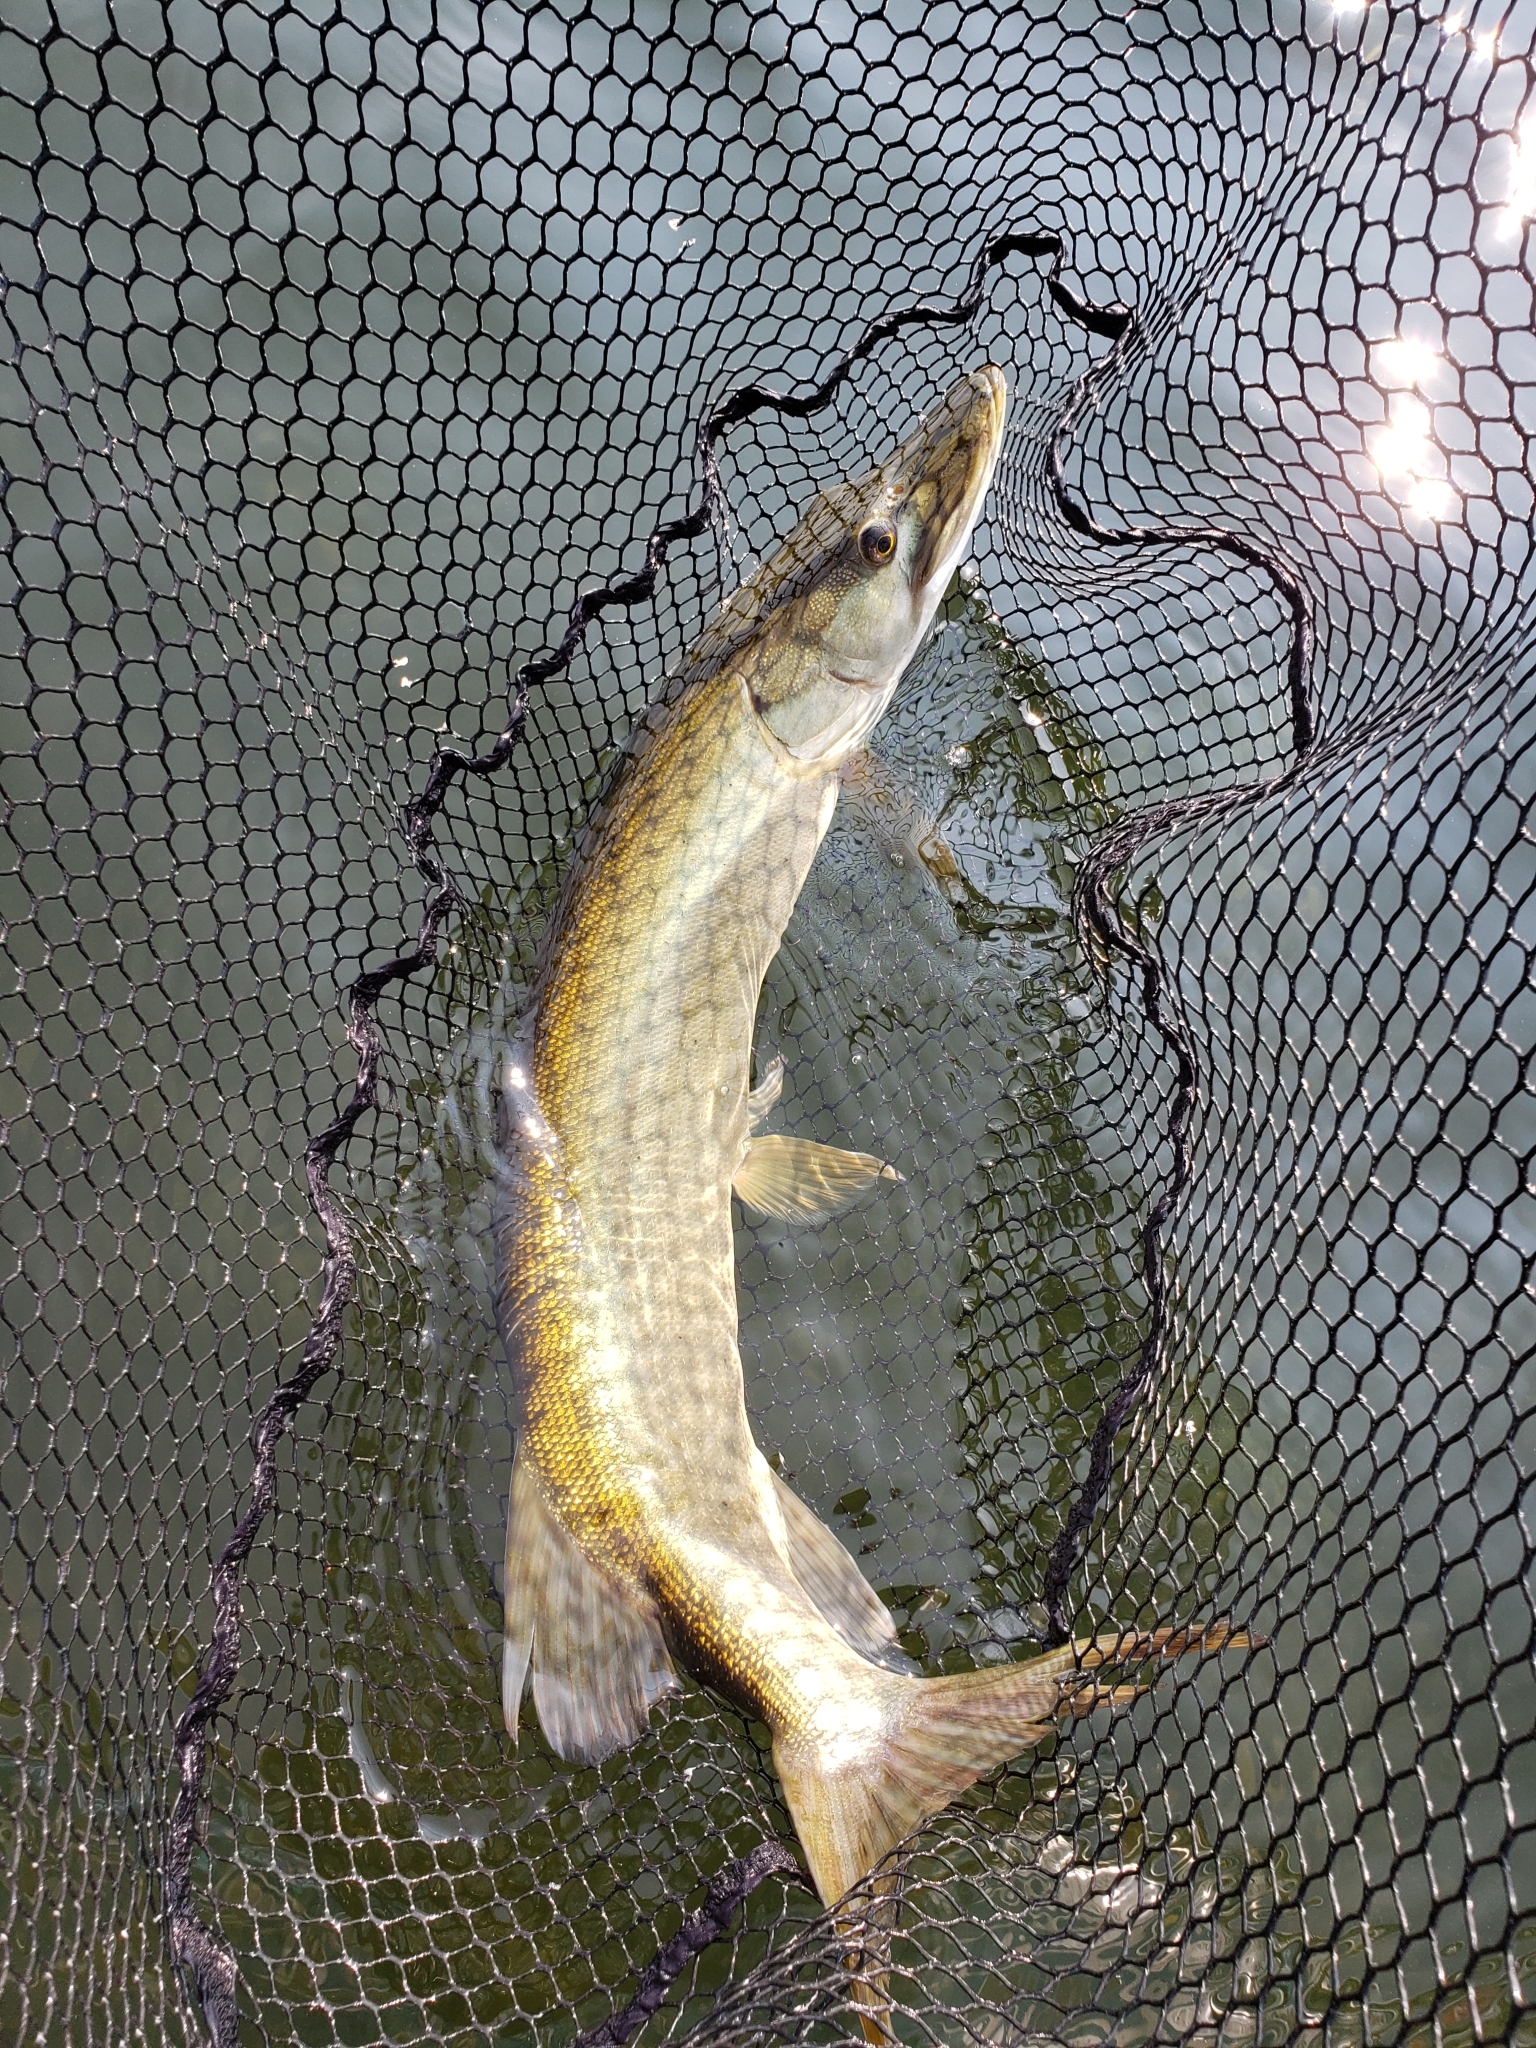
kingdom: Animalia
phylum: Chordata
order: Esociformes
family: Esocidae
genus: Esox
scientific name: Esox masquinongy
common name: Muskellunge
